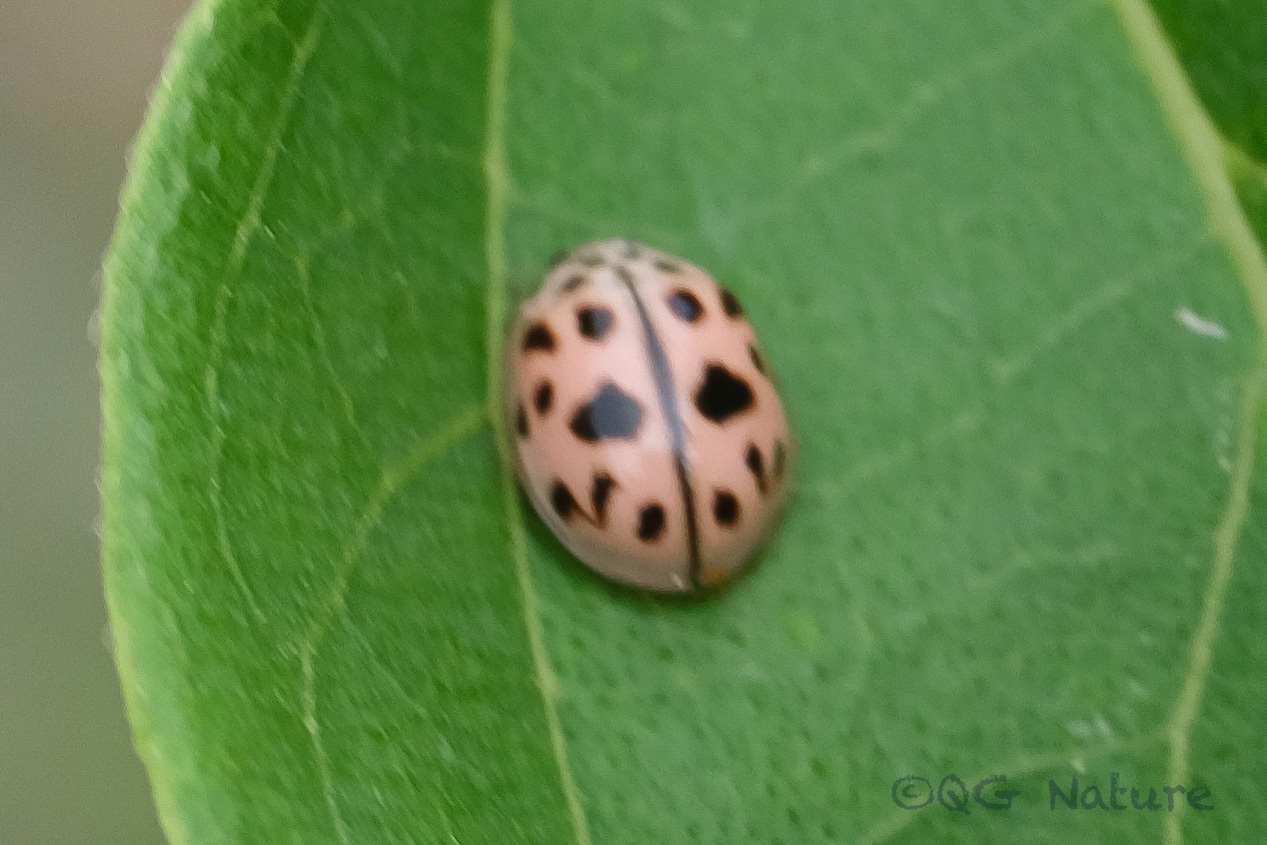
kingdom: Animalia
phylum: Arthropoda
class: Insecta
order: Coleoptera
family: Coccinellidae
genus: Oenopia
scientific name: Oenopia conglobata
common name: Ladybird beetle
